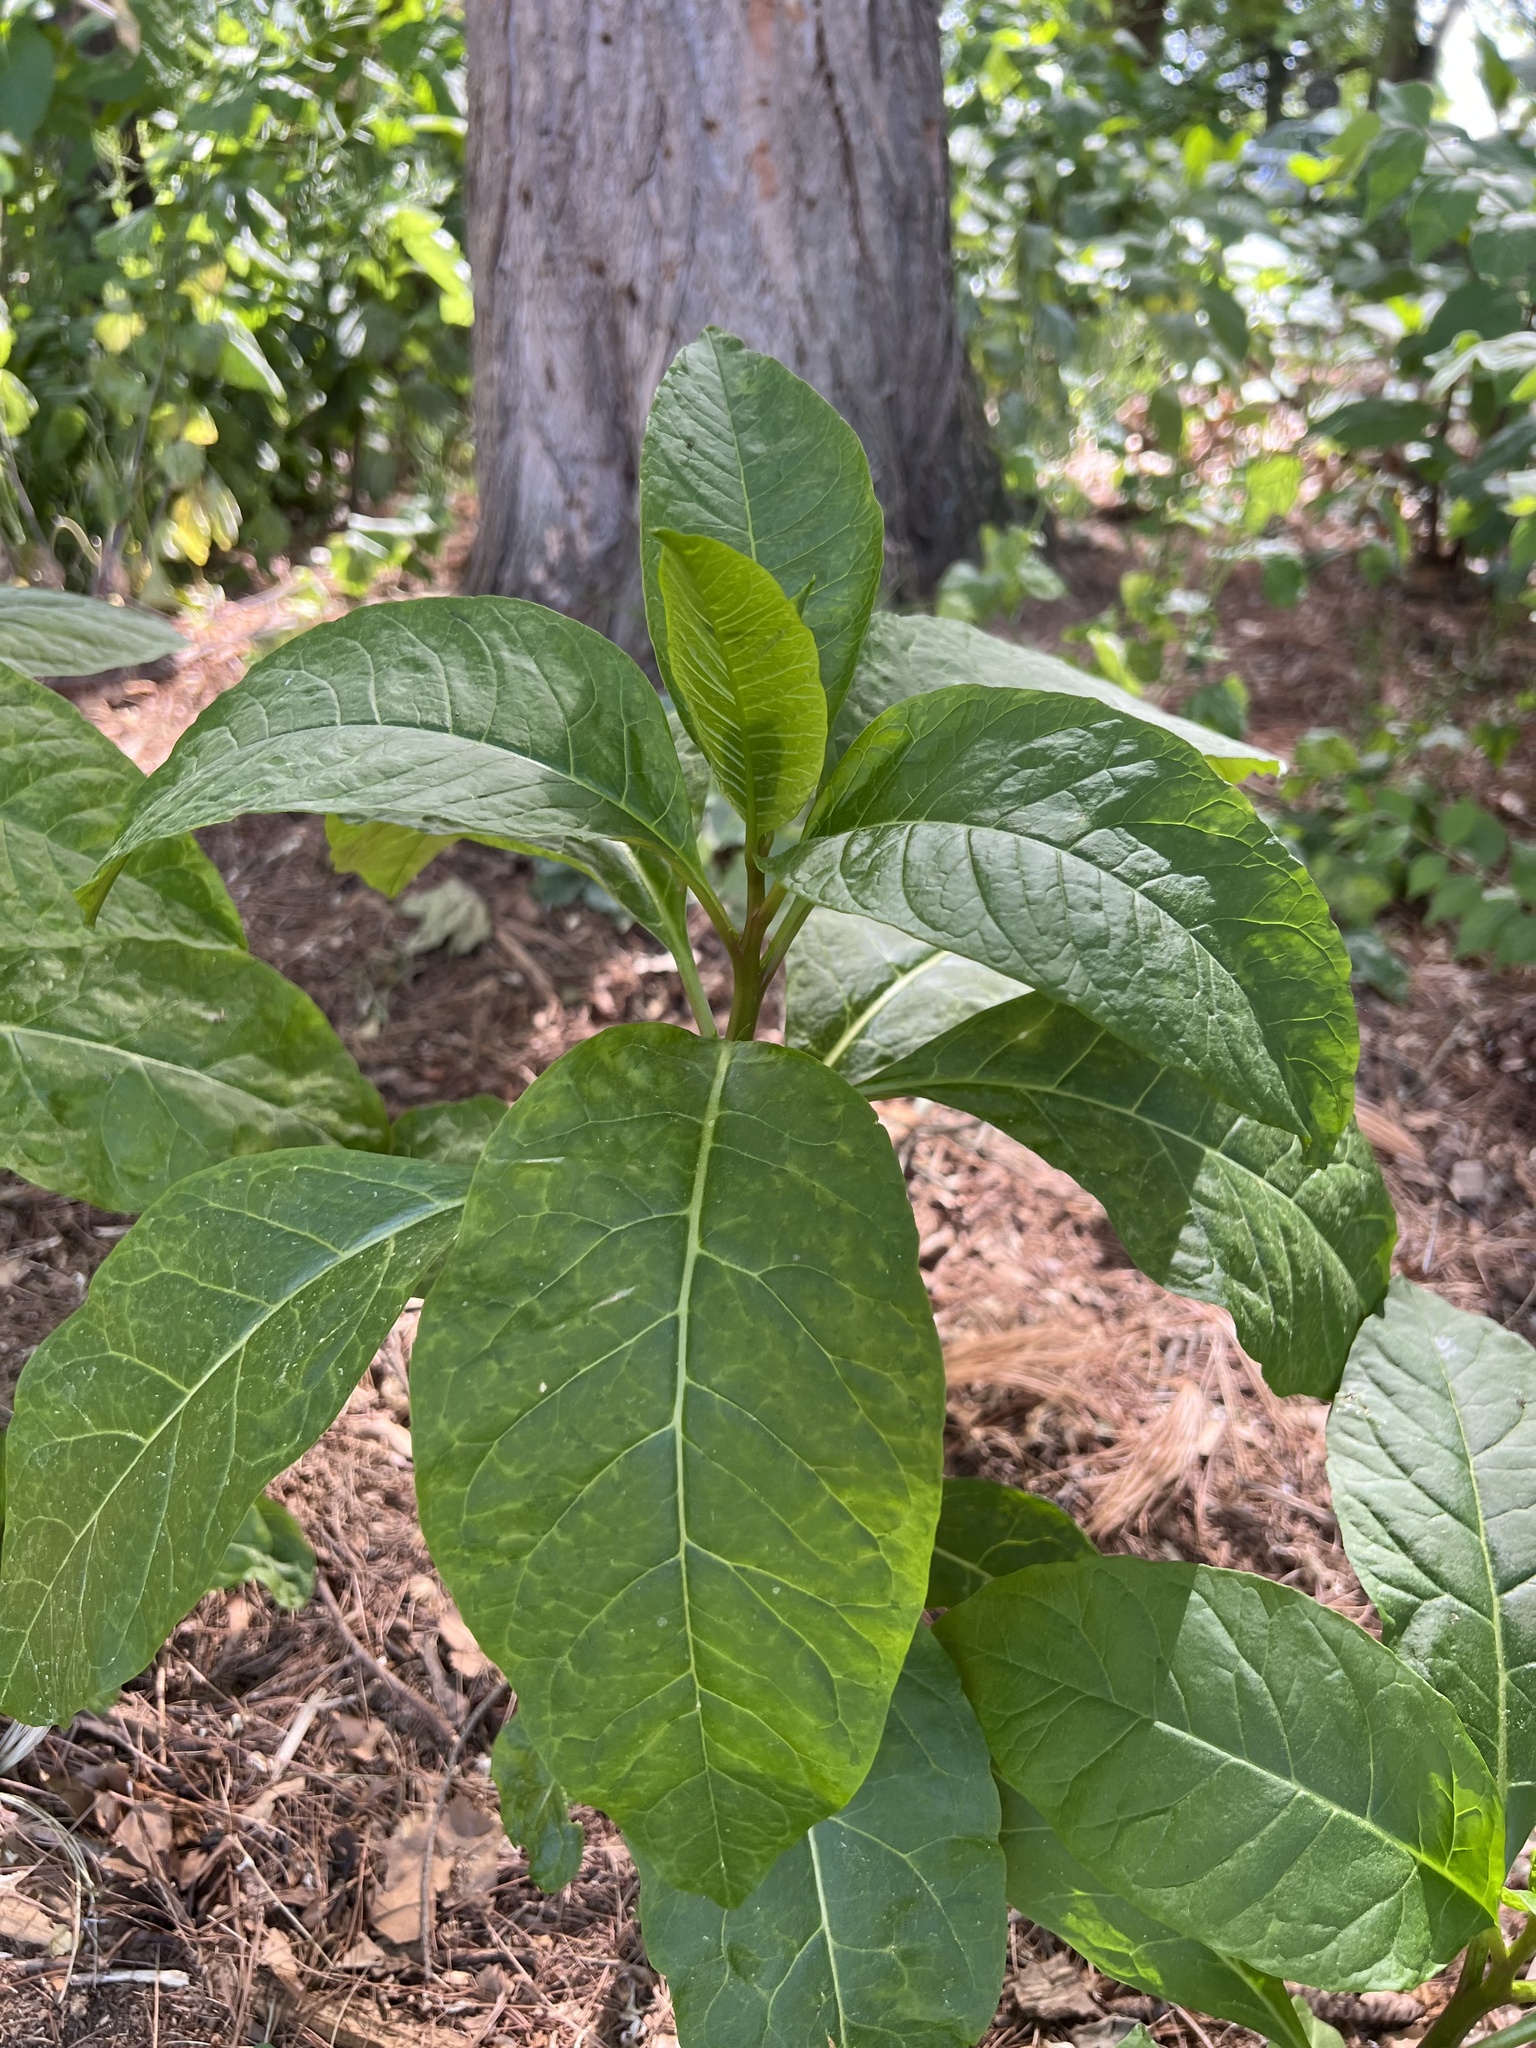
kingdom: Plantae
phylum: Tracheophyta
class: Magnoliopsida
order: Caryophyllales
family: Phytolaccaceae
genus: Phytolacca
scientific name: Phytolacca americana
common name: American pokeweed
